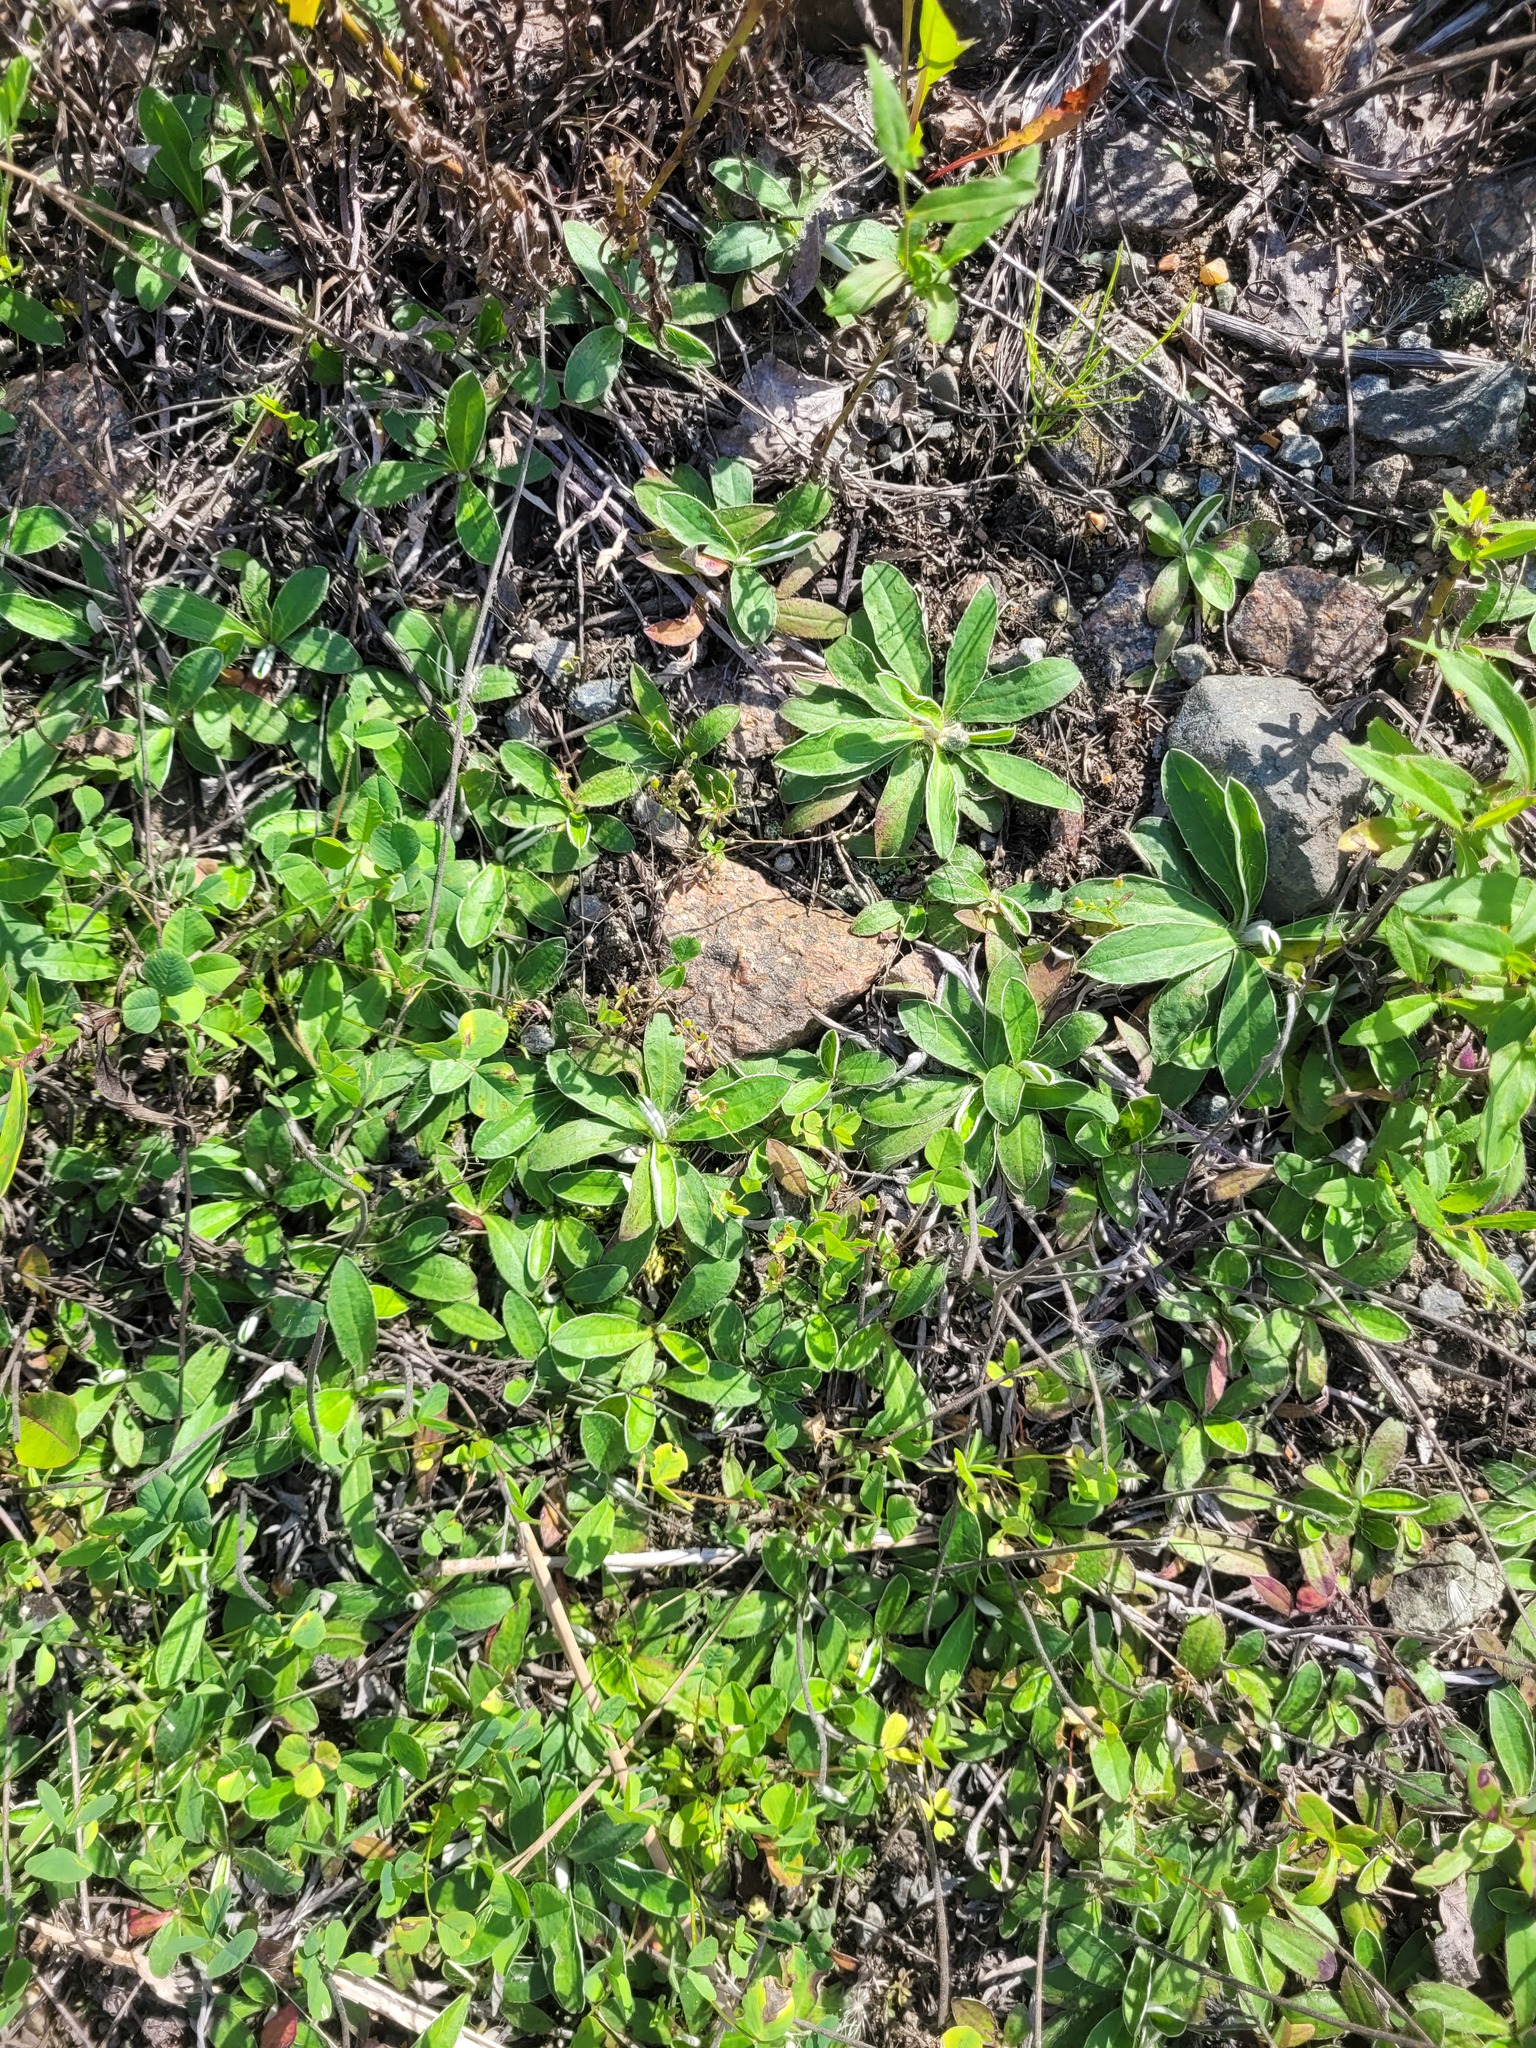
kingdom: Plantae
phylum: Tracheophyta
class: Magnoliopsida
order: Asterales
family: Asteraceae
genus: Pilosella
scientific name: Pilosella officinarum
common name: Mouse-ear hawkweed
